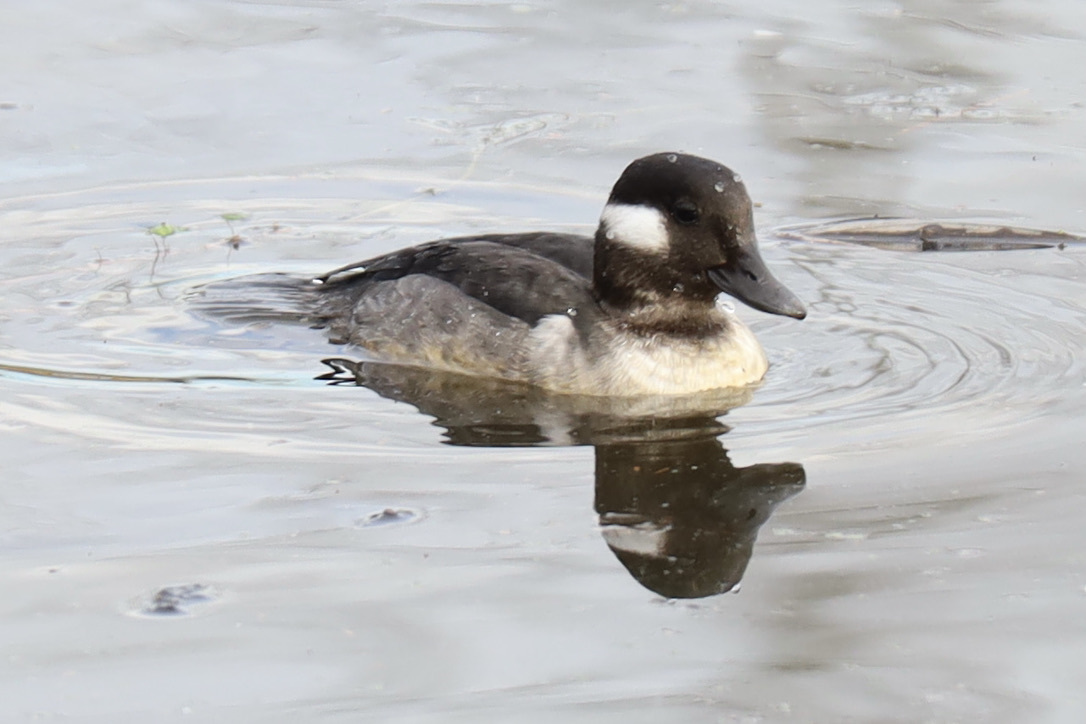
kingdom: Animalia
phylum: Chordata
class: Aves
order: Anseriformes
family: Anatidae
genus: Bucephala
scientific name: Bucephala albeola
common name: Bufflehead
